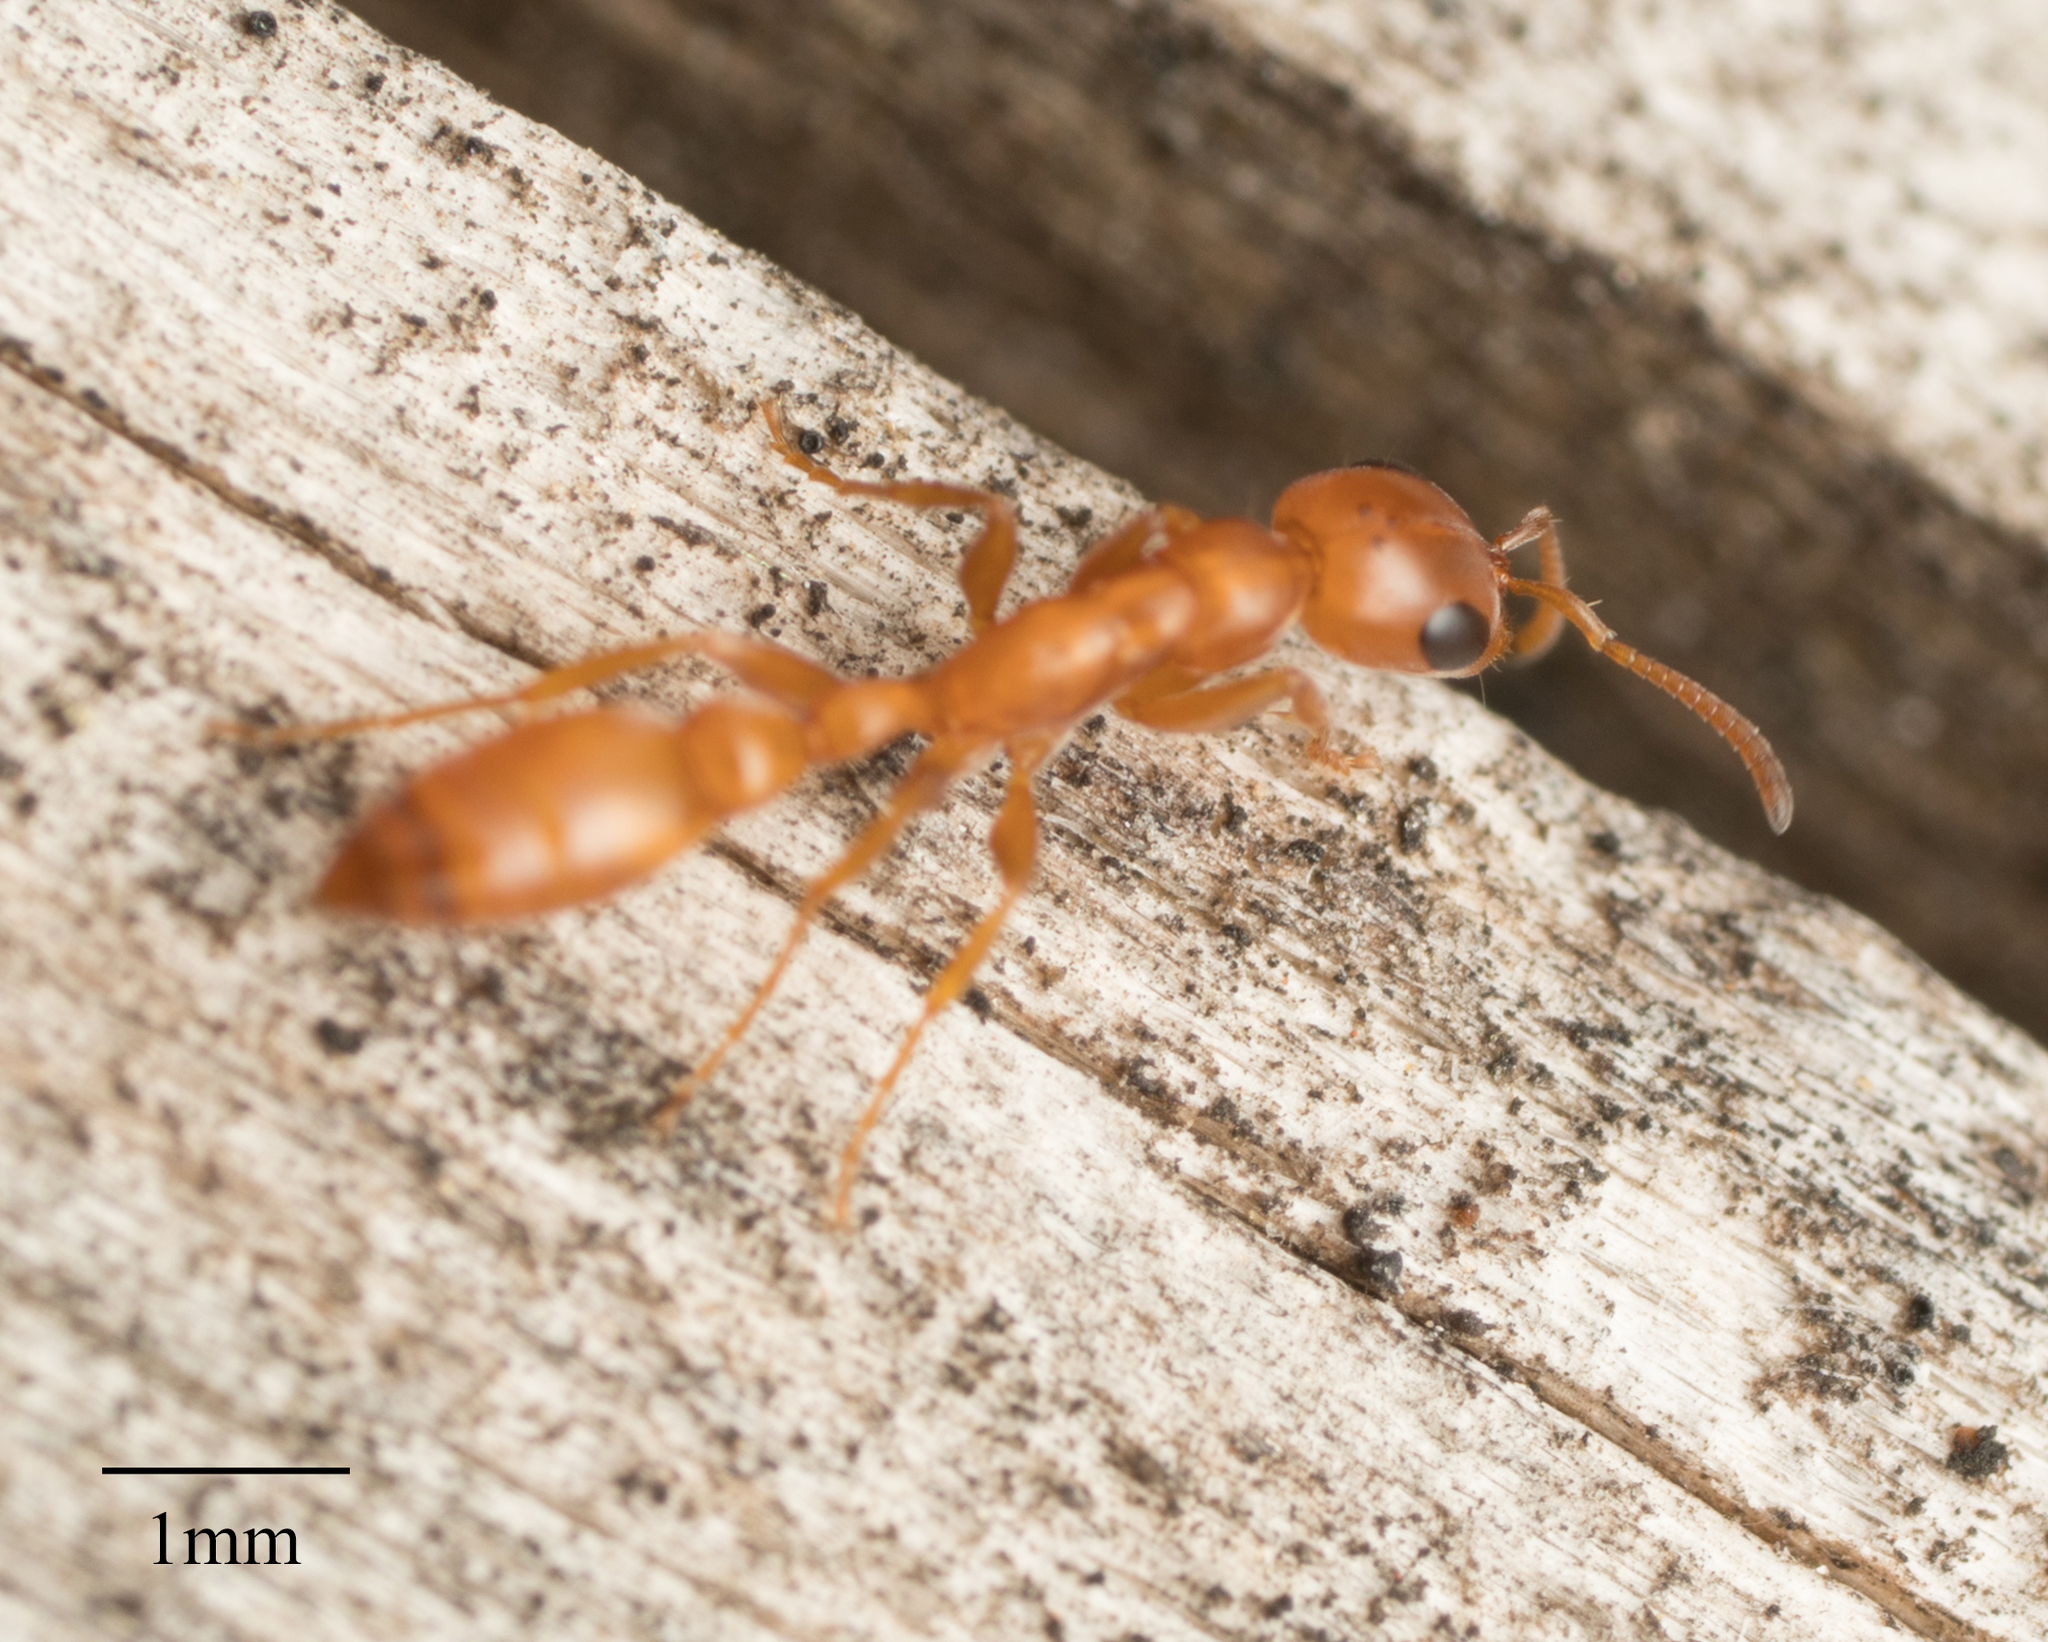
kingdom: Animalia
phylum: Arthropoda
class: Insecta
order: Hymenoptera
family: Formicidae
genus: Pseudomyrmex
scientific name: Pseudomyrmex apache
